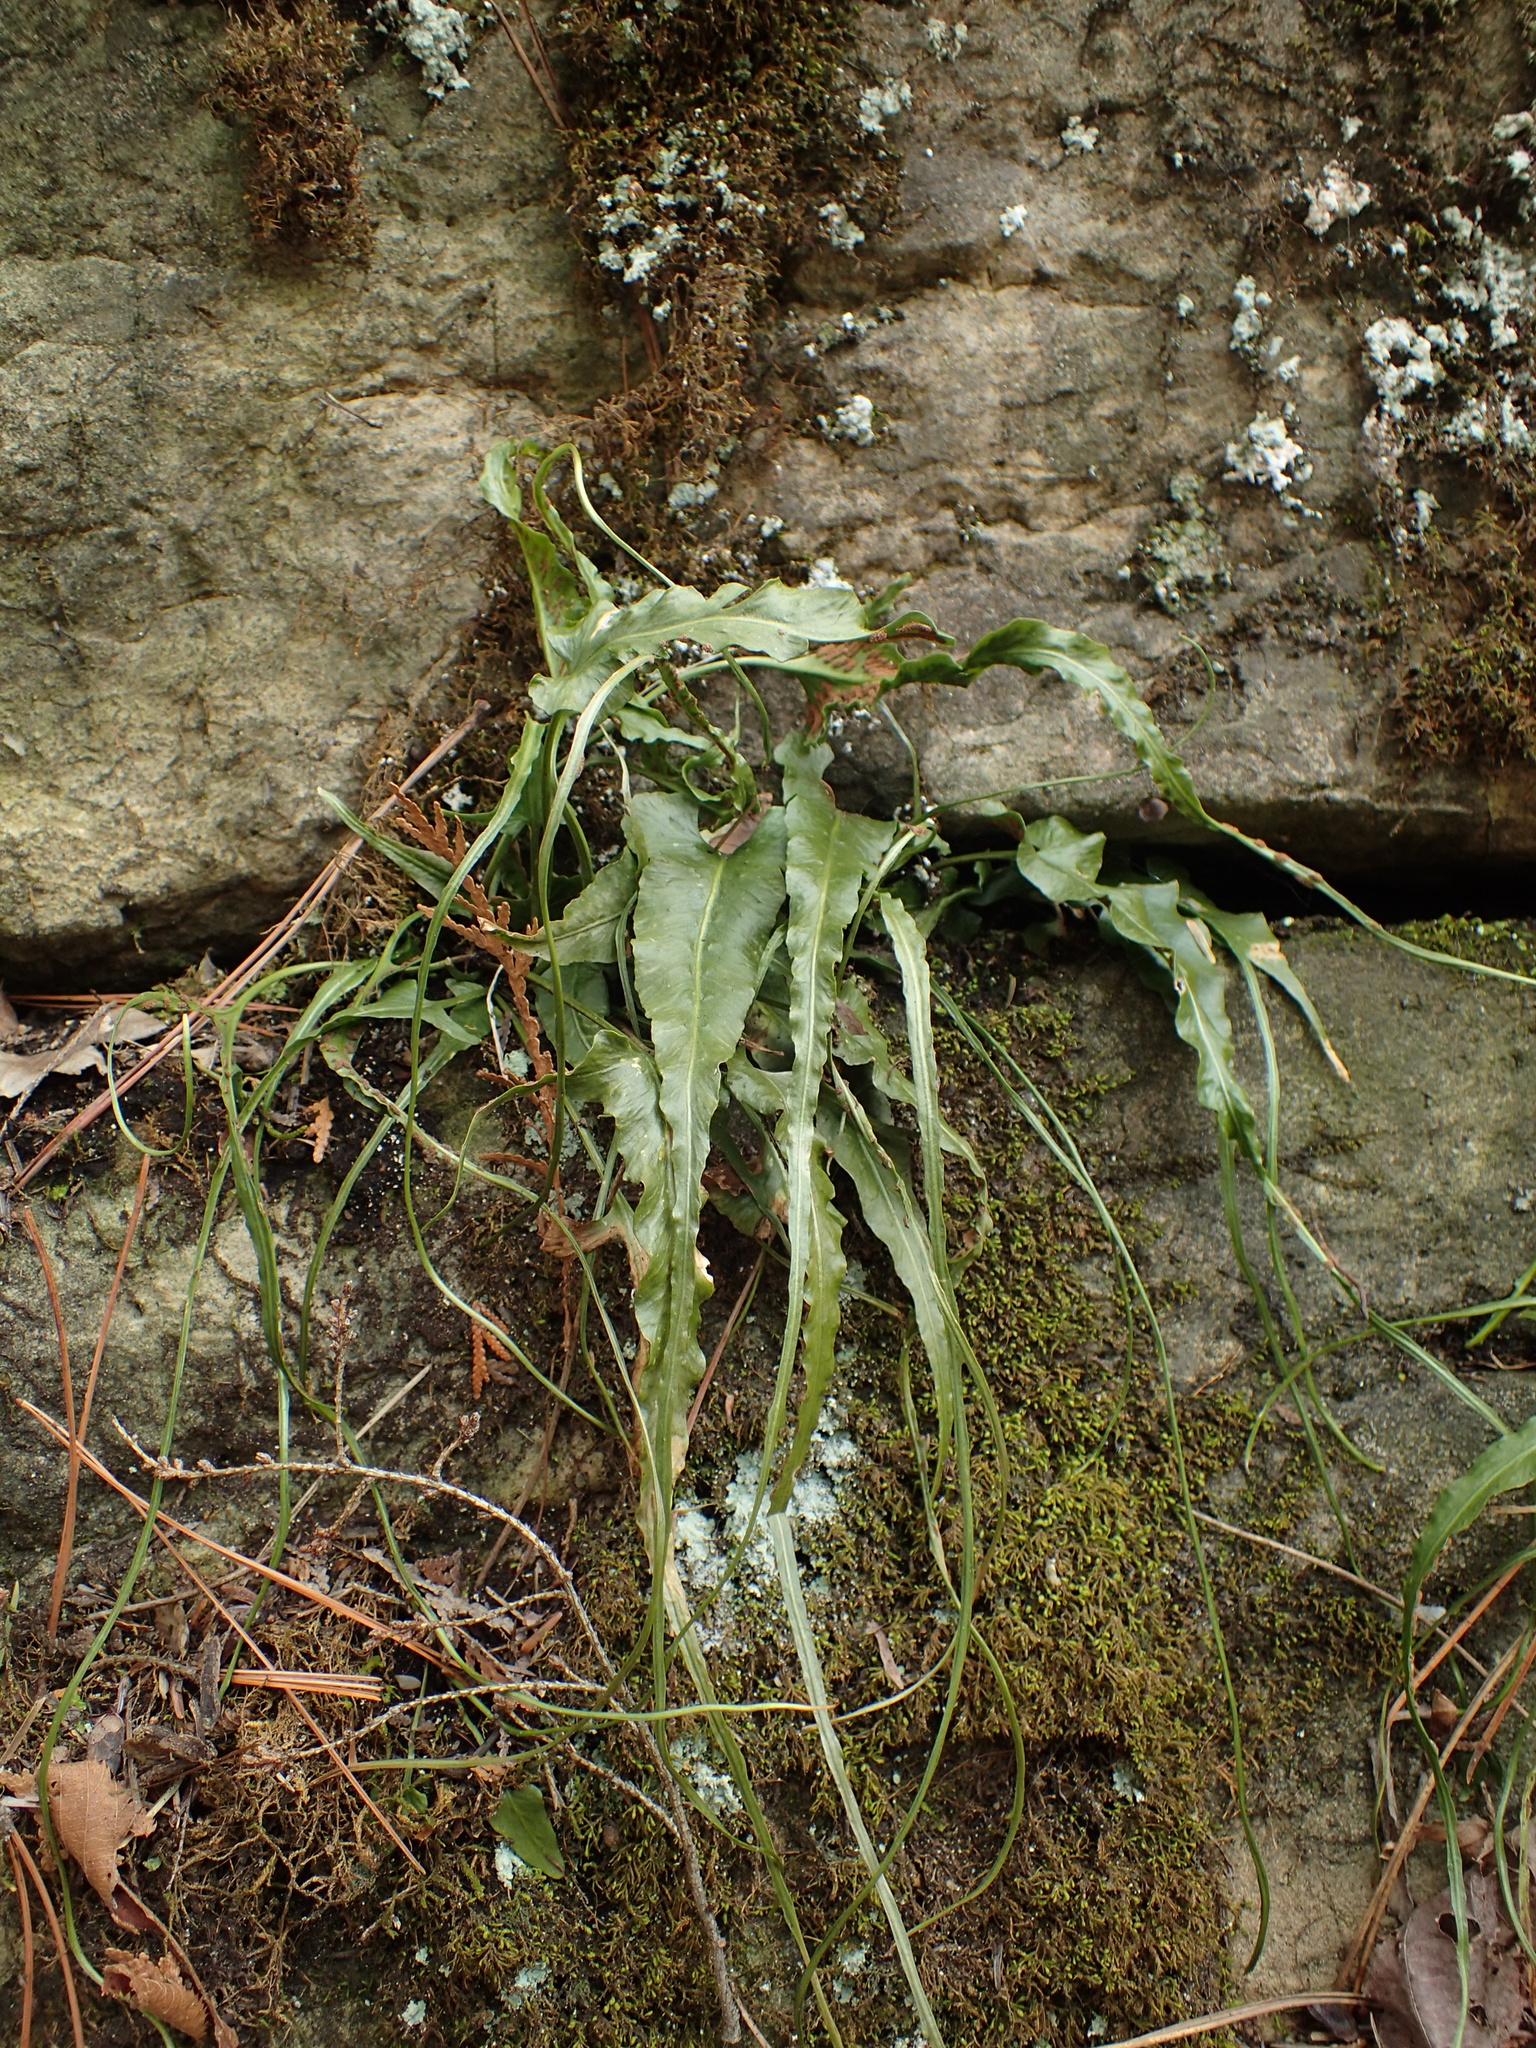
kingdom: Plantae
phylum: Tracheophyta
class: Polypodiopsida
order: Polypodiales
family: Aspleniaceae
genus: Asplenium
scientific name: Asplenium rhizophyllum
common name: Walking fern
